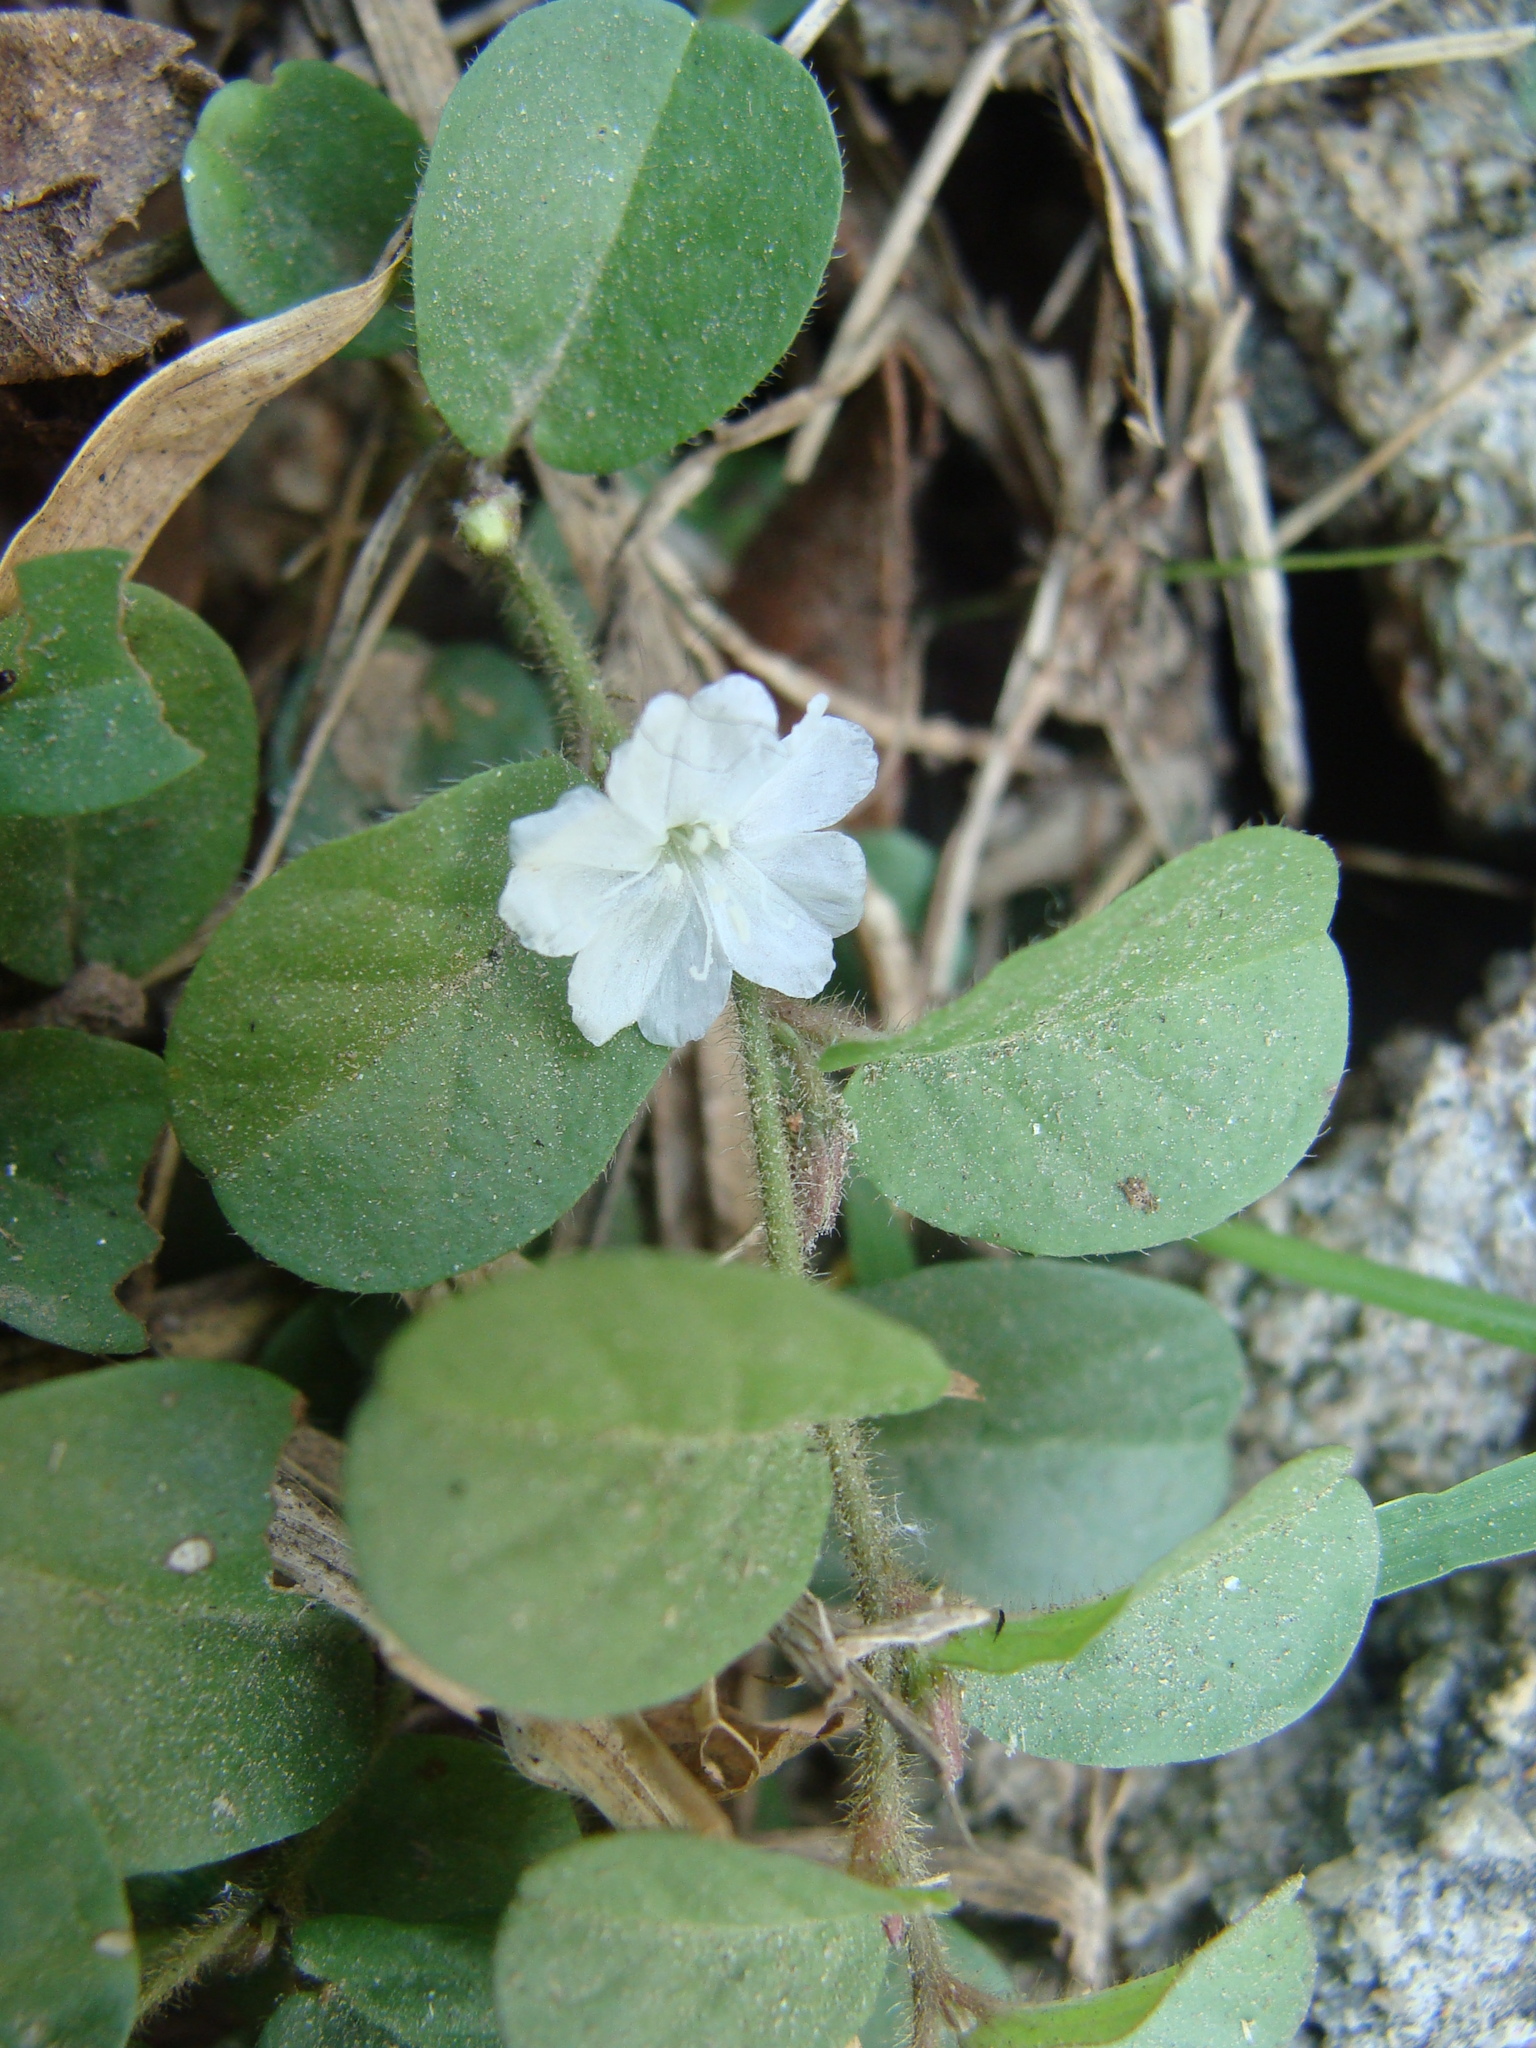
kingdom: Plantae
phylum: Tracheophyta
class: Magnoliopsida
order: Solanales
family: Convolvulaceae
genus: Evolvulus
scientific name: Evolvulus nummularius
